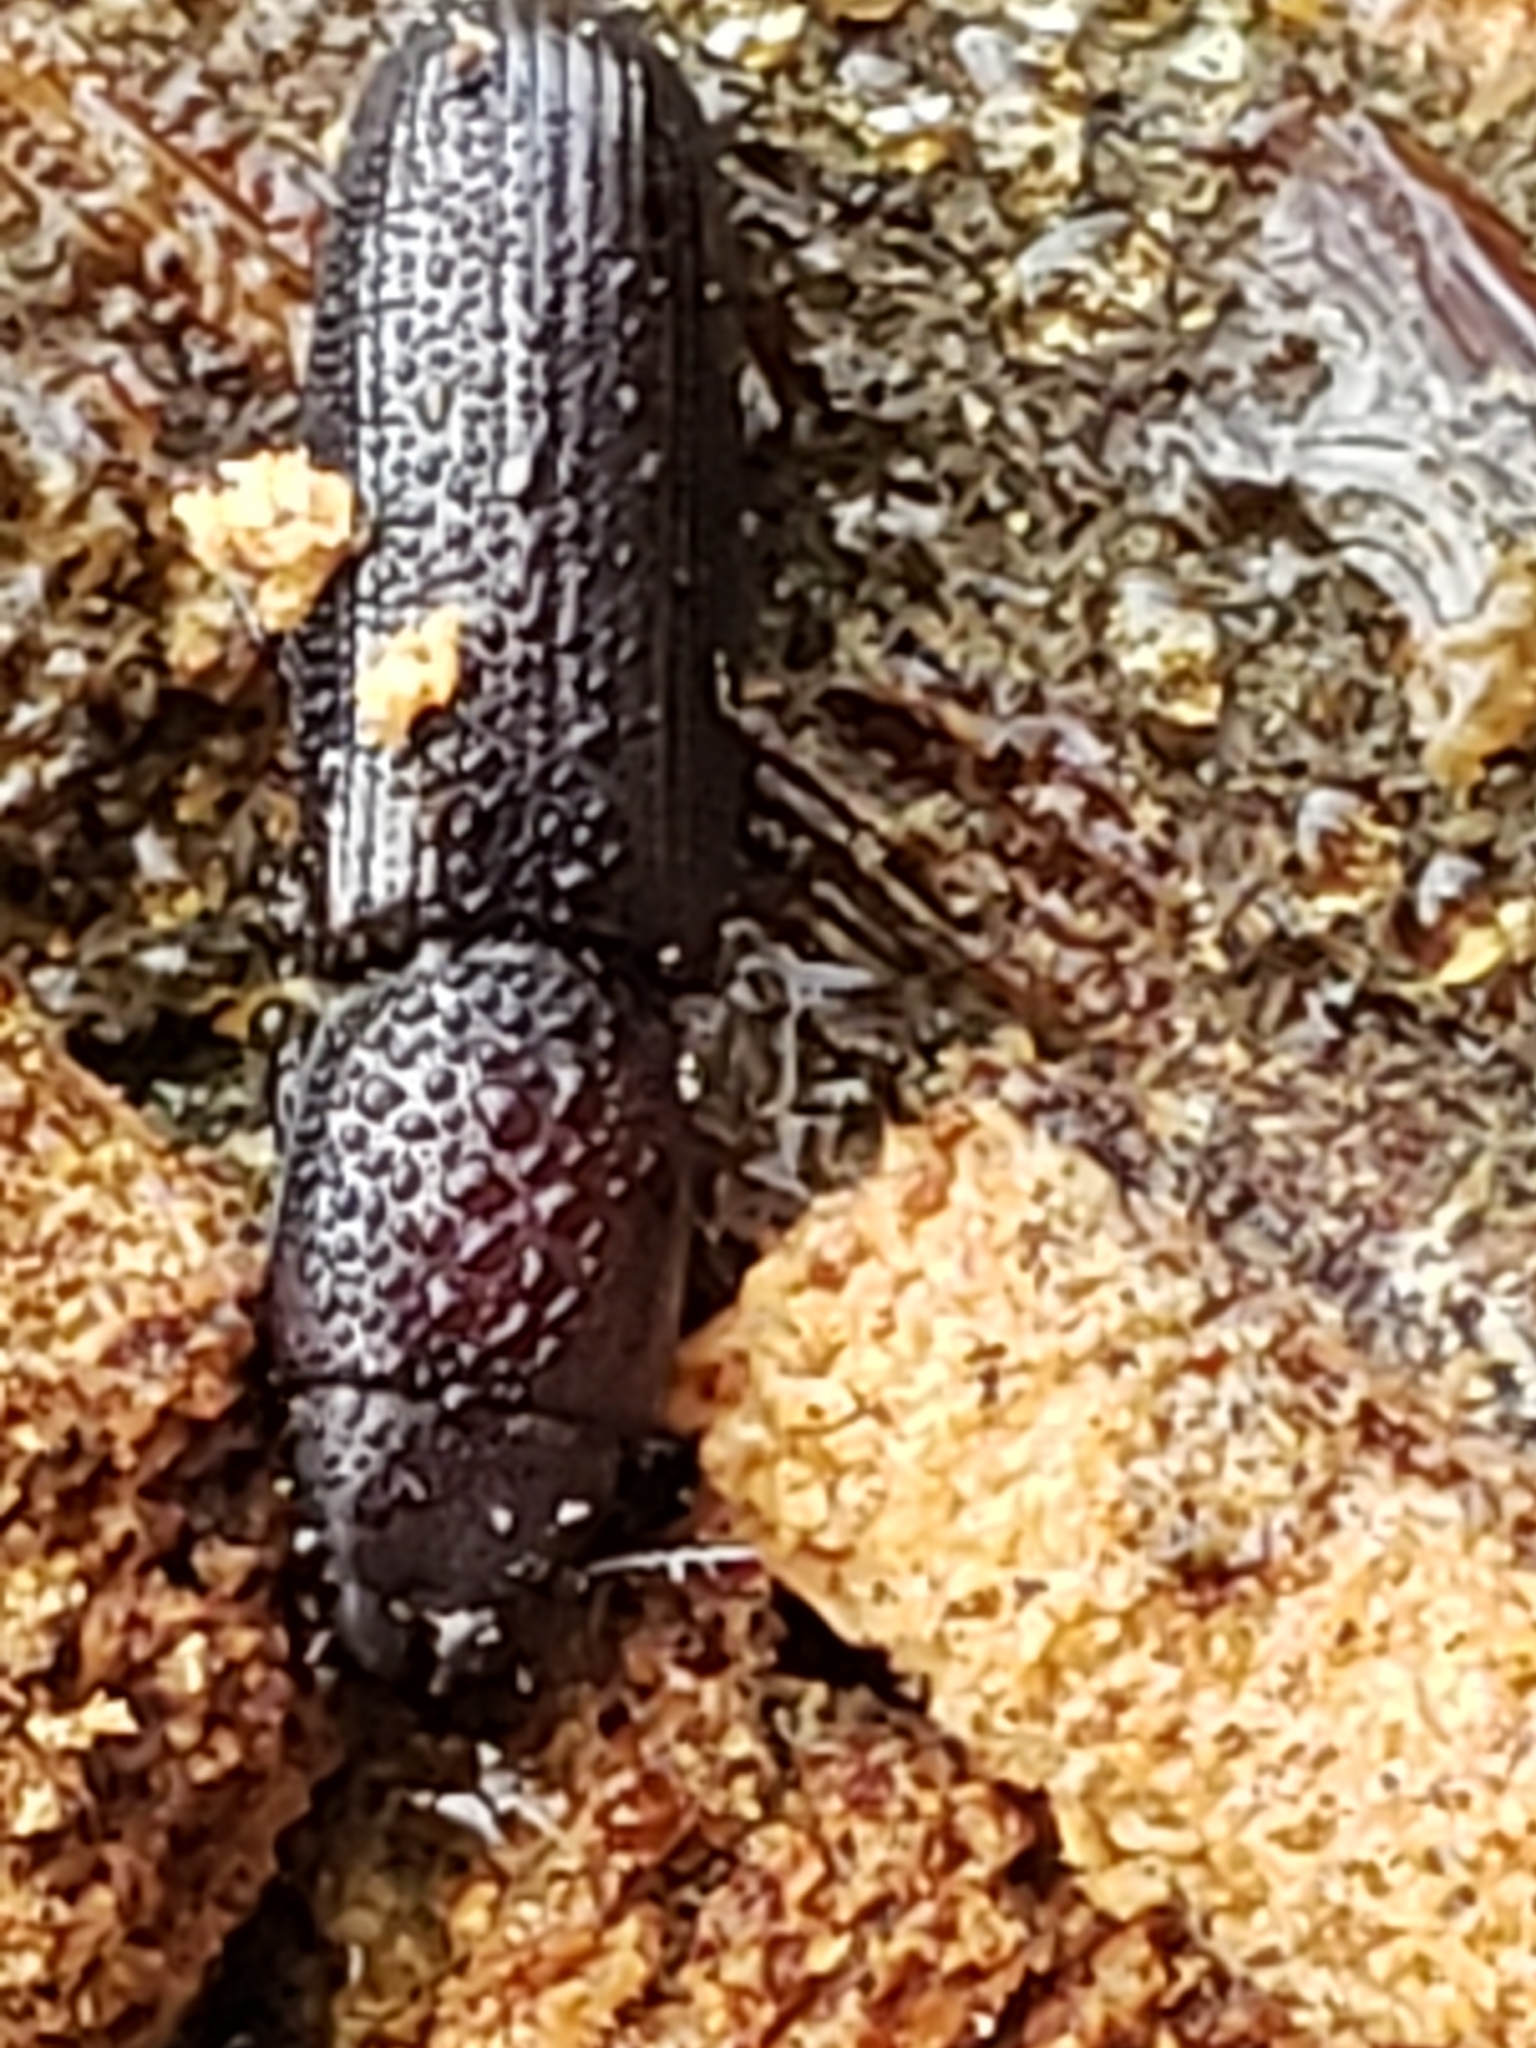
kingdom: Animalia
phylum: Arthropoda
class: Insecta
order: Coleoptera
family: Trogossitidae
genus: Airora
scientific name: Airora cylindrica
